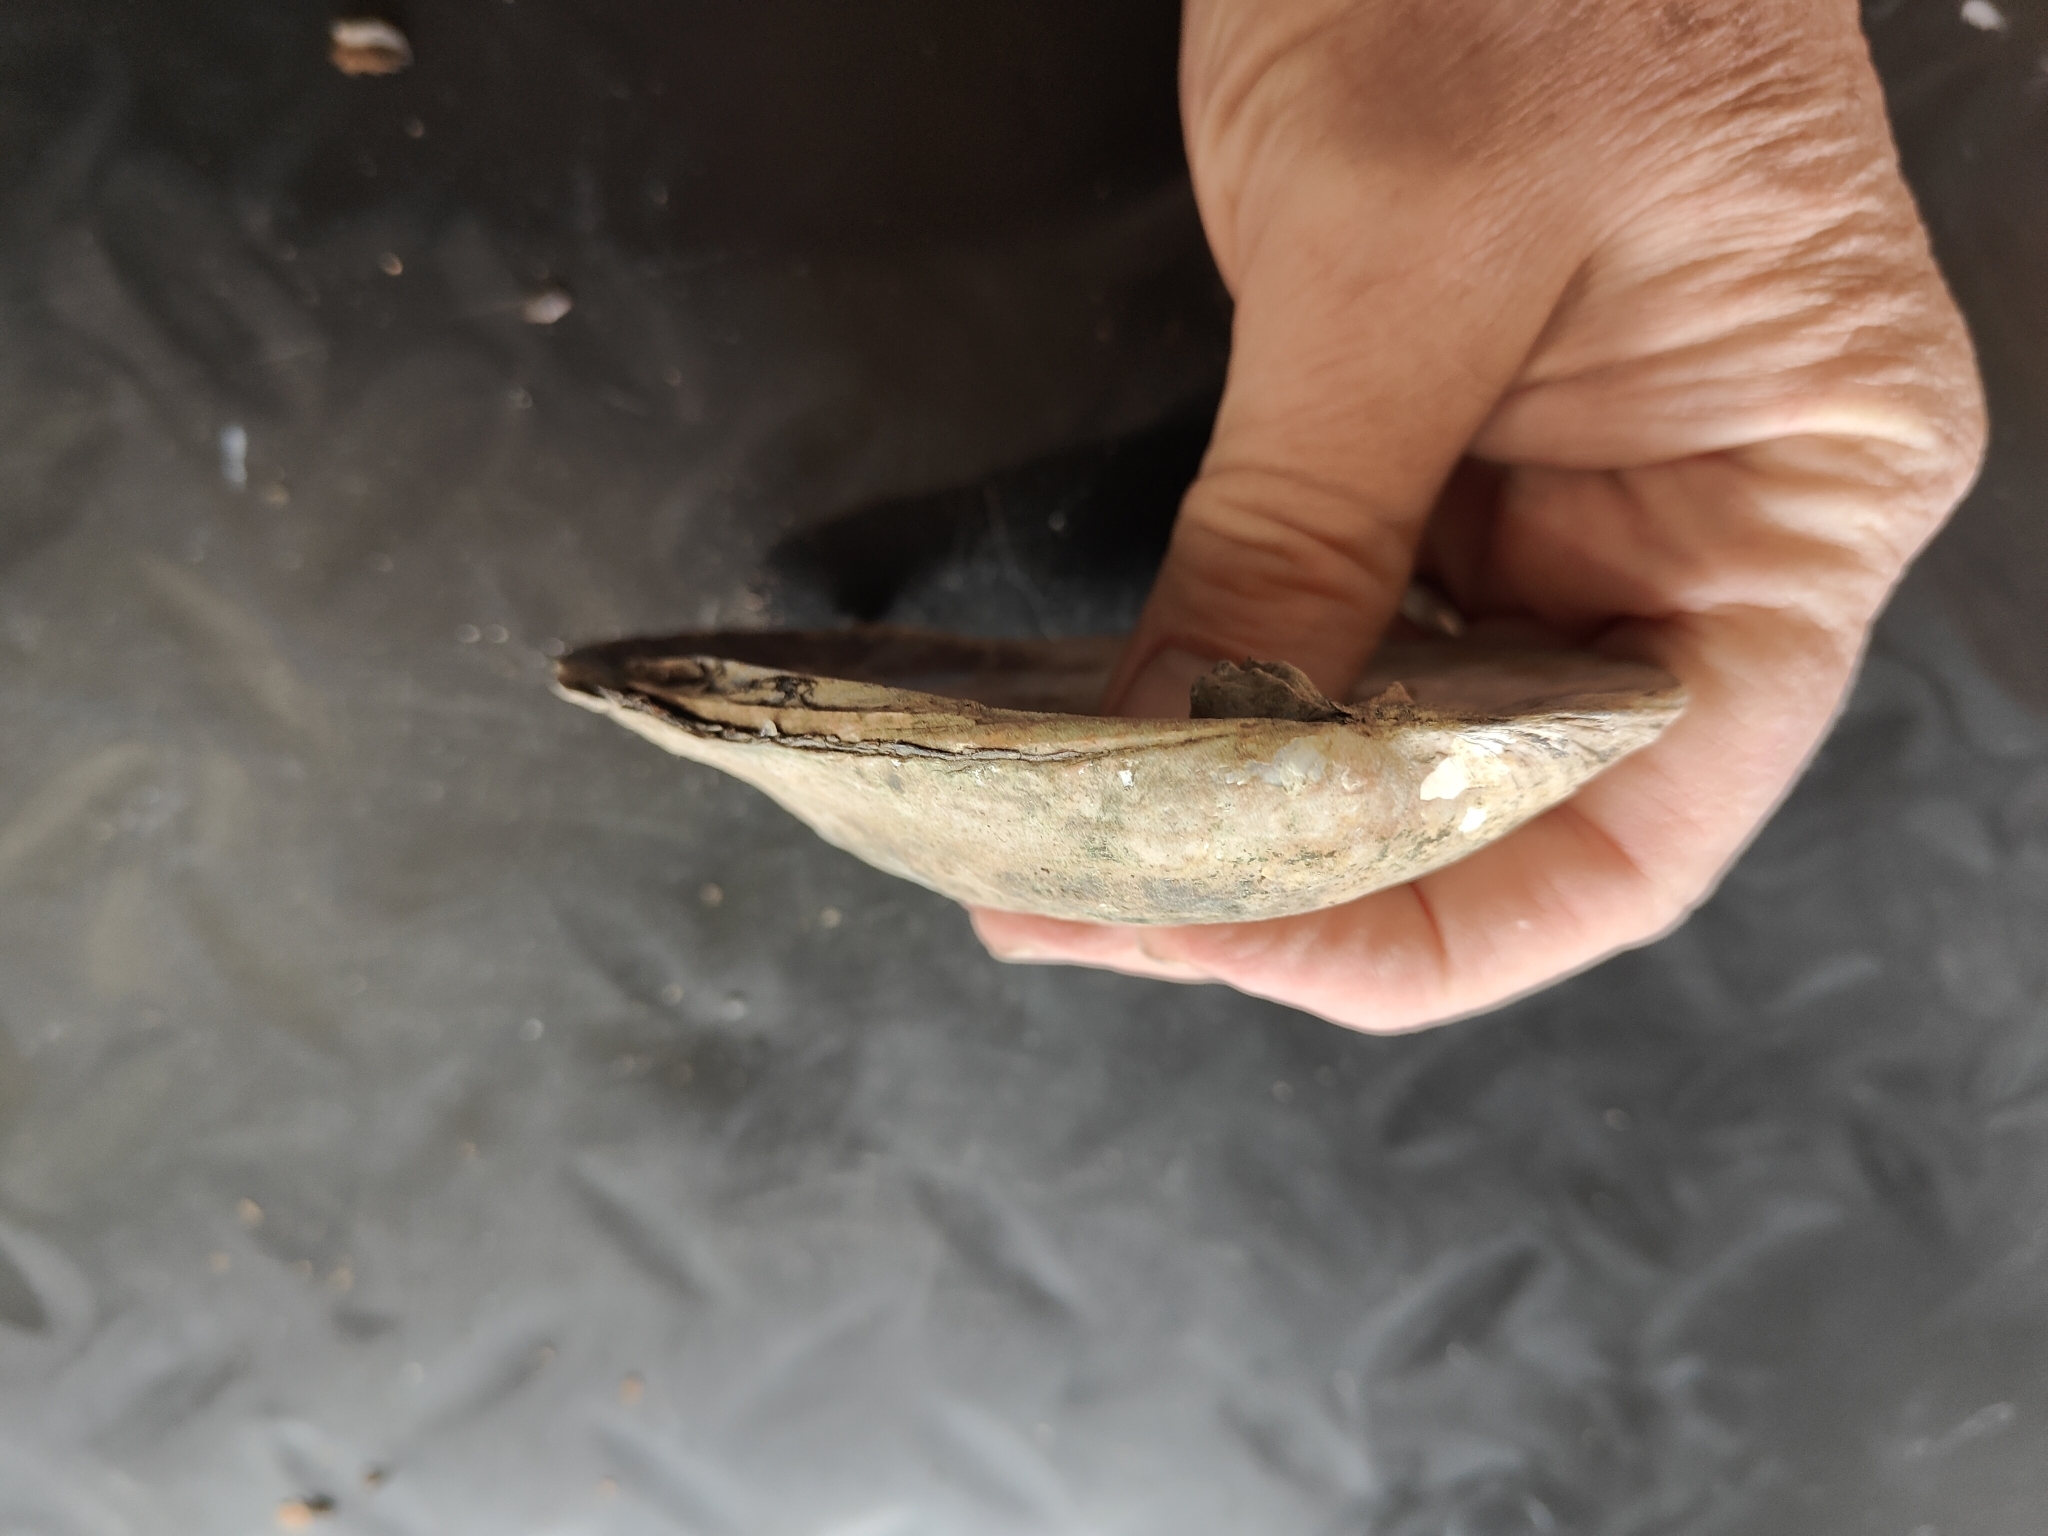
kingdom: Animalia
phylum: Mollusca
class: Bivalvia
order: Unionida
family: Unionidae
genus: Amblema
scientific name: Amblema plicata
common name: Threeridge
